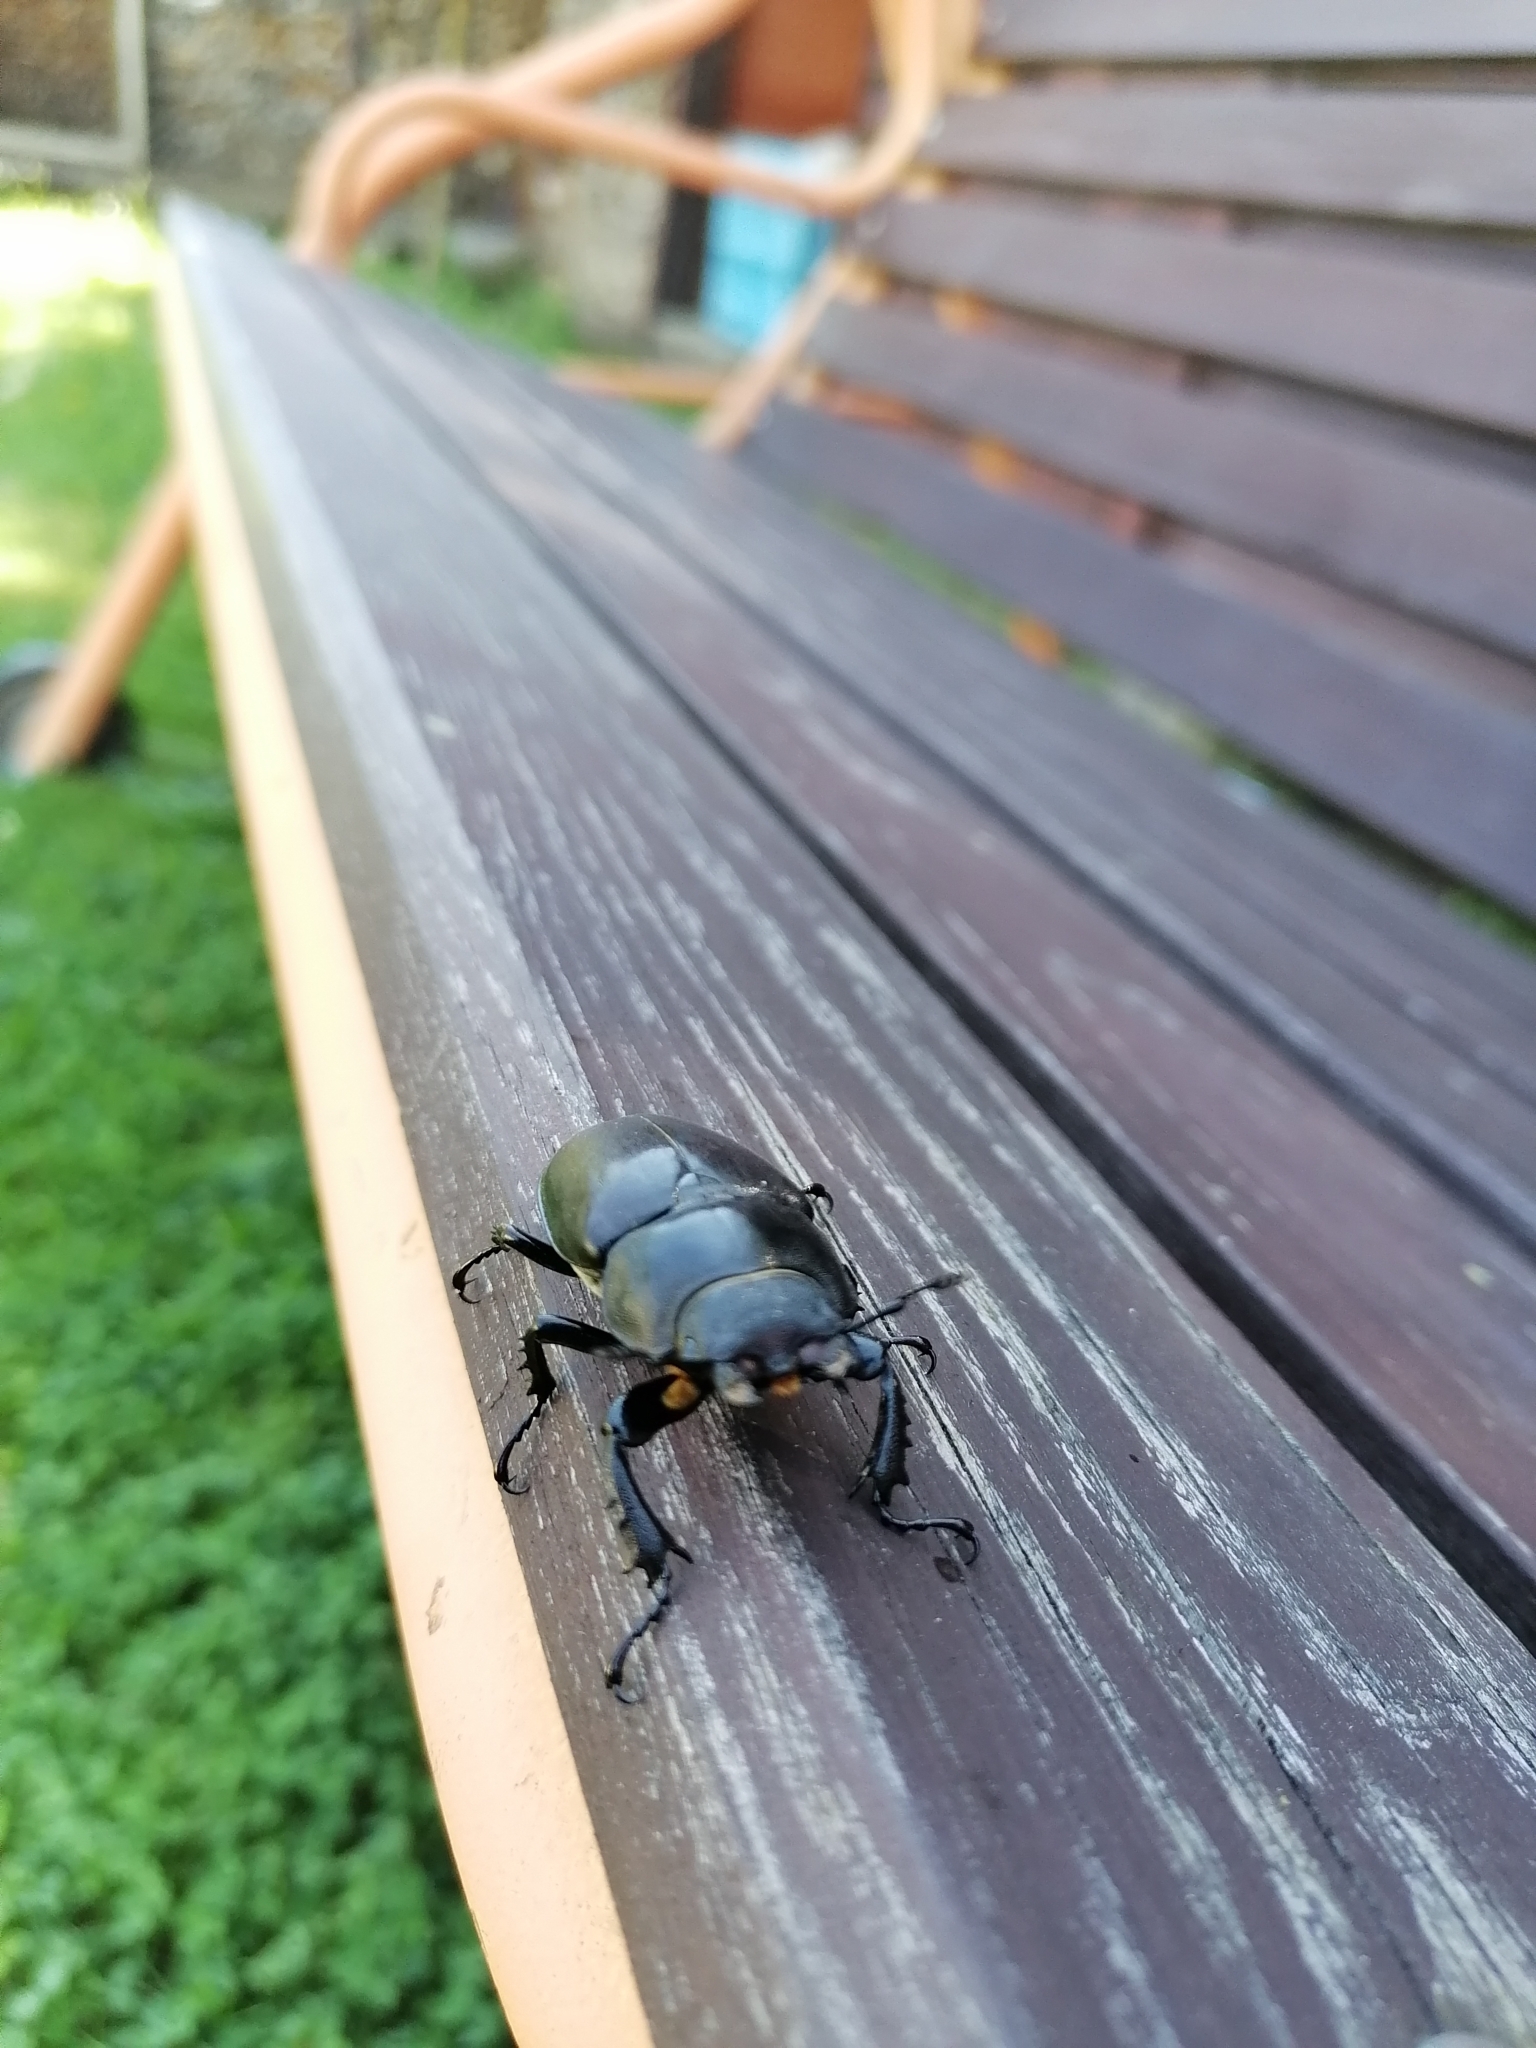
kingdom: Animalia
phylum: Arthropoda
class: Insecta
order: Coleoptera
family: Lucanidae
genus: Lucanus
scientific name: Lucanus cervus
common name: Stag beetle
